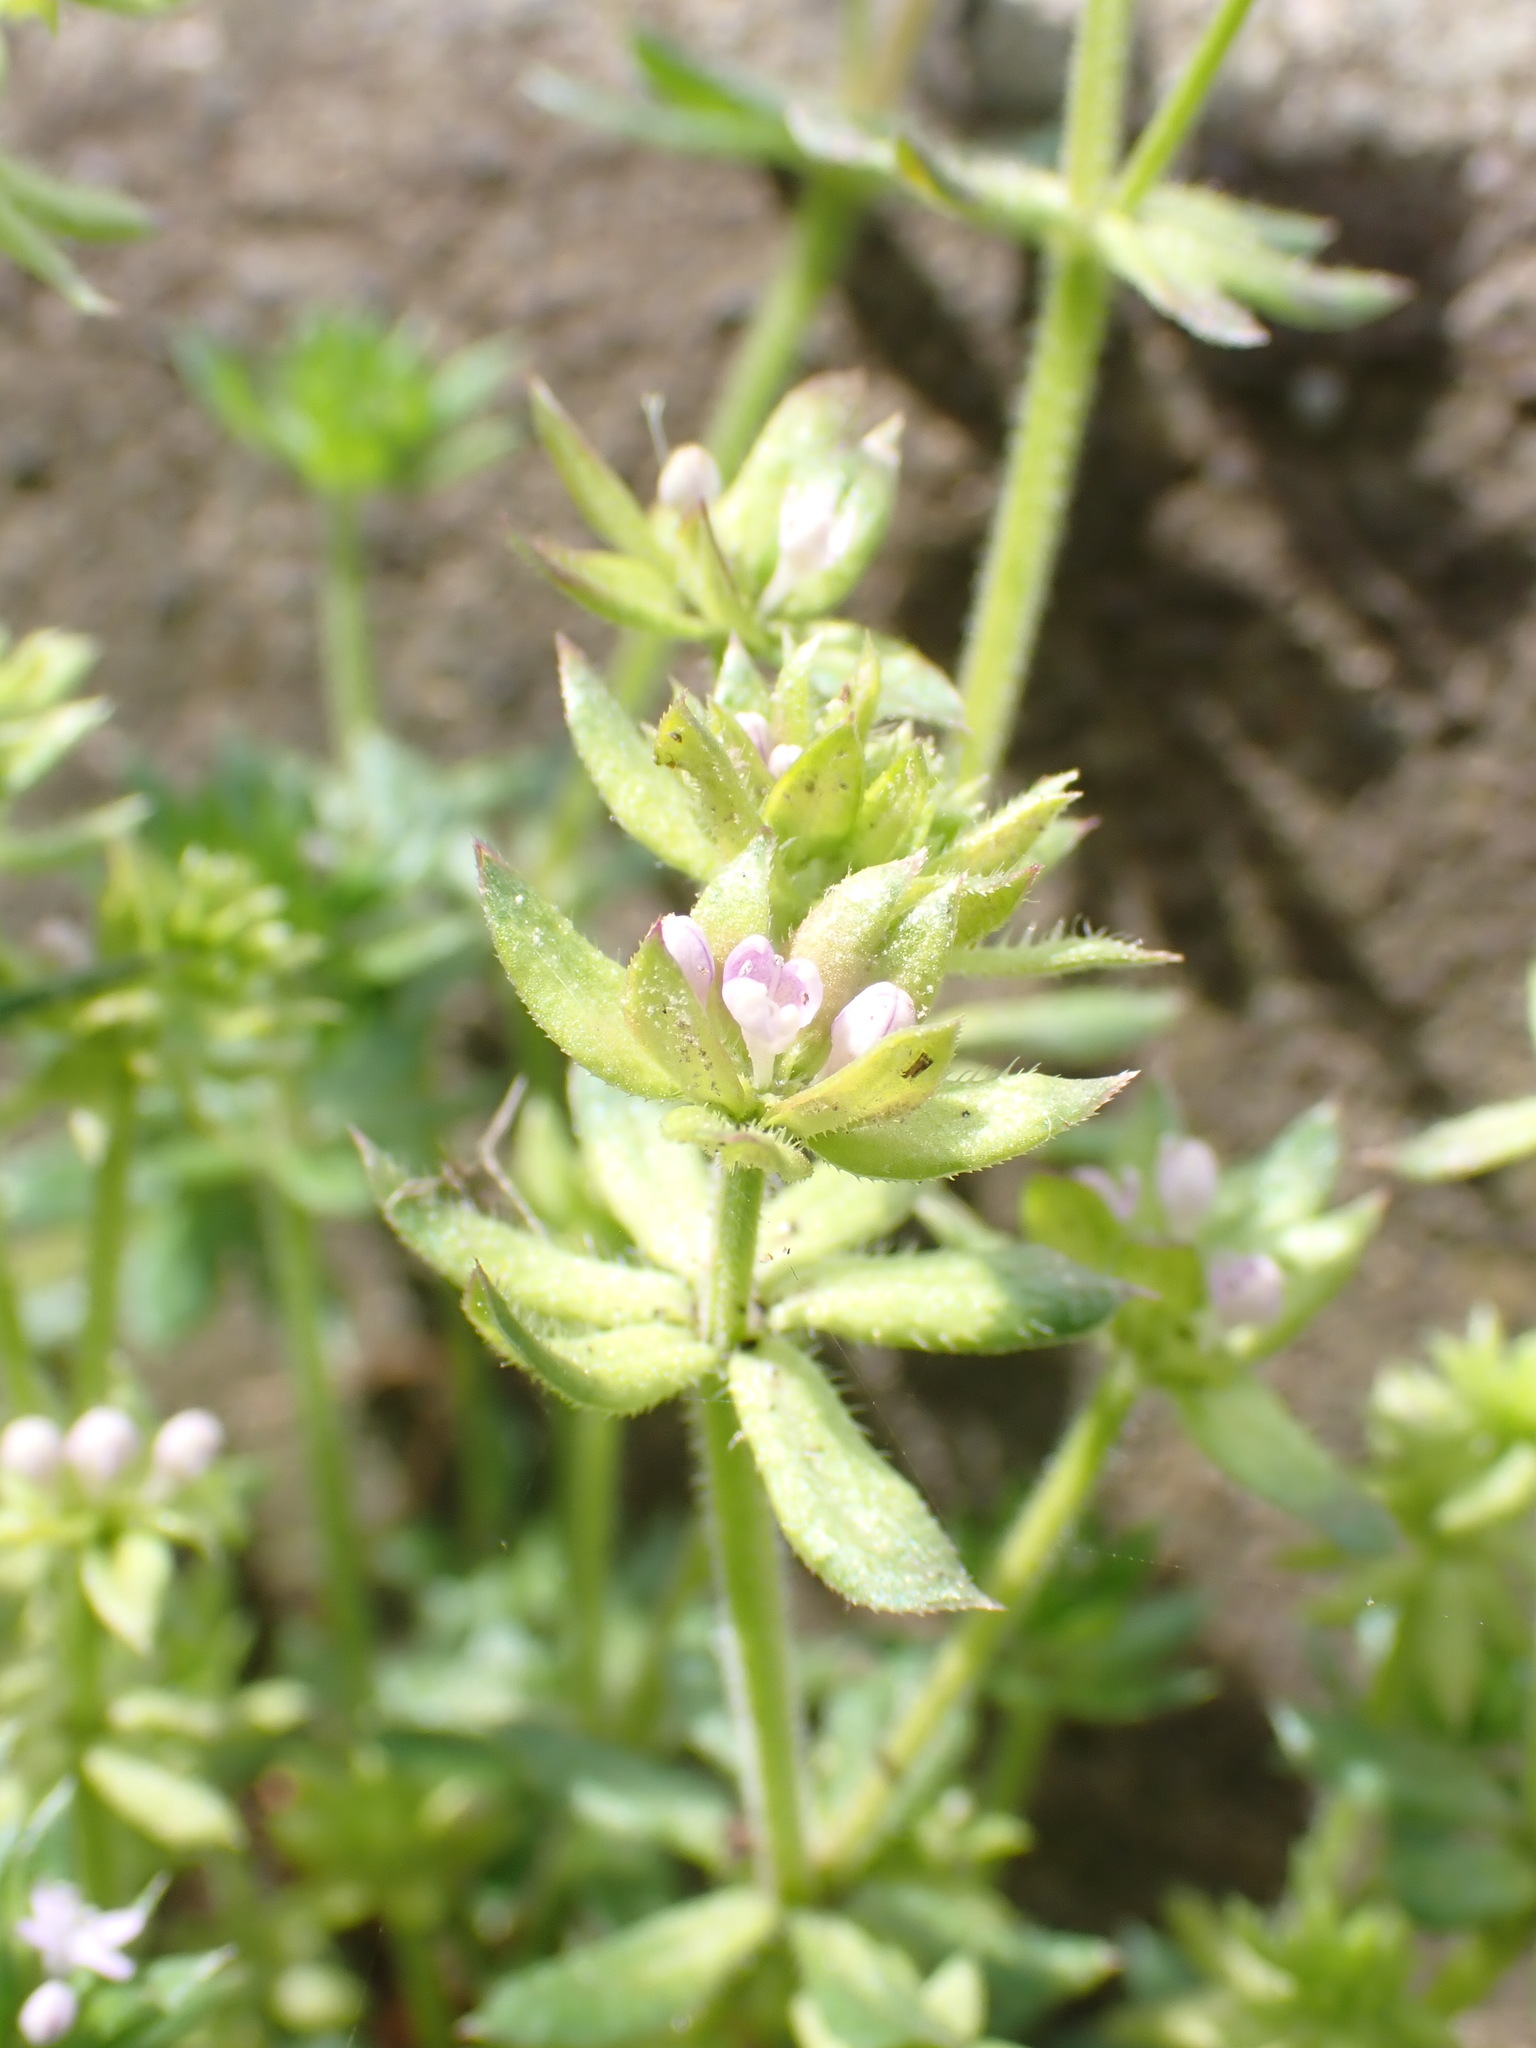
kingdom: Plantae
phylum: Tracheophyta
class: Magnoliopsida
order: Gentianales
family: Rubiaceae
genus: Sherardia
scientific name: Sherardia arvensis
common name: Field madder
